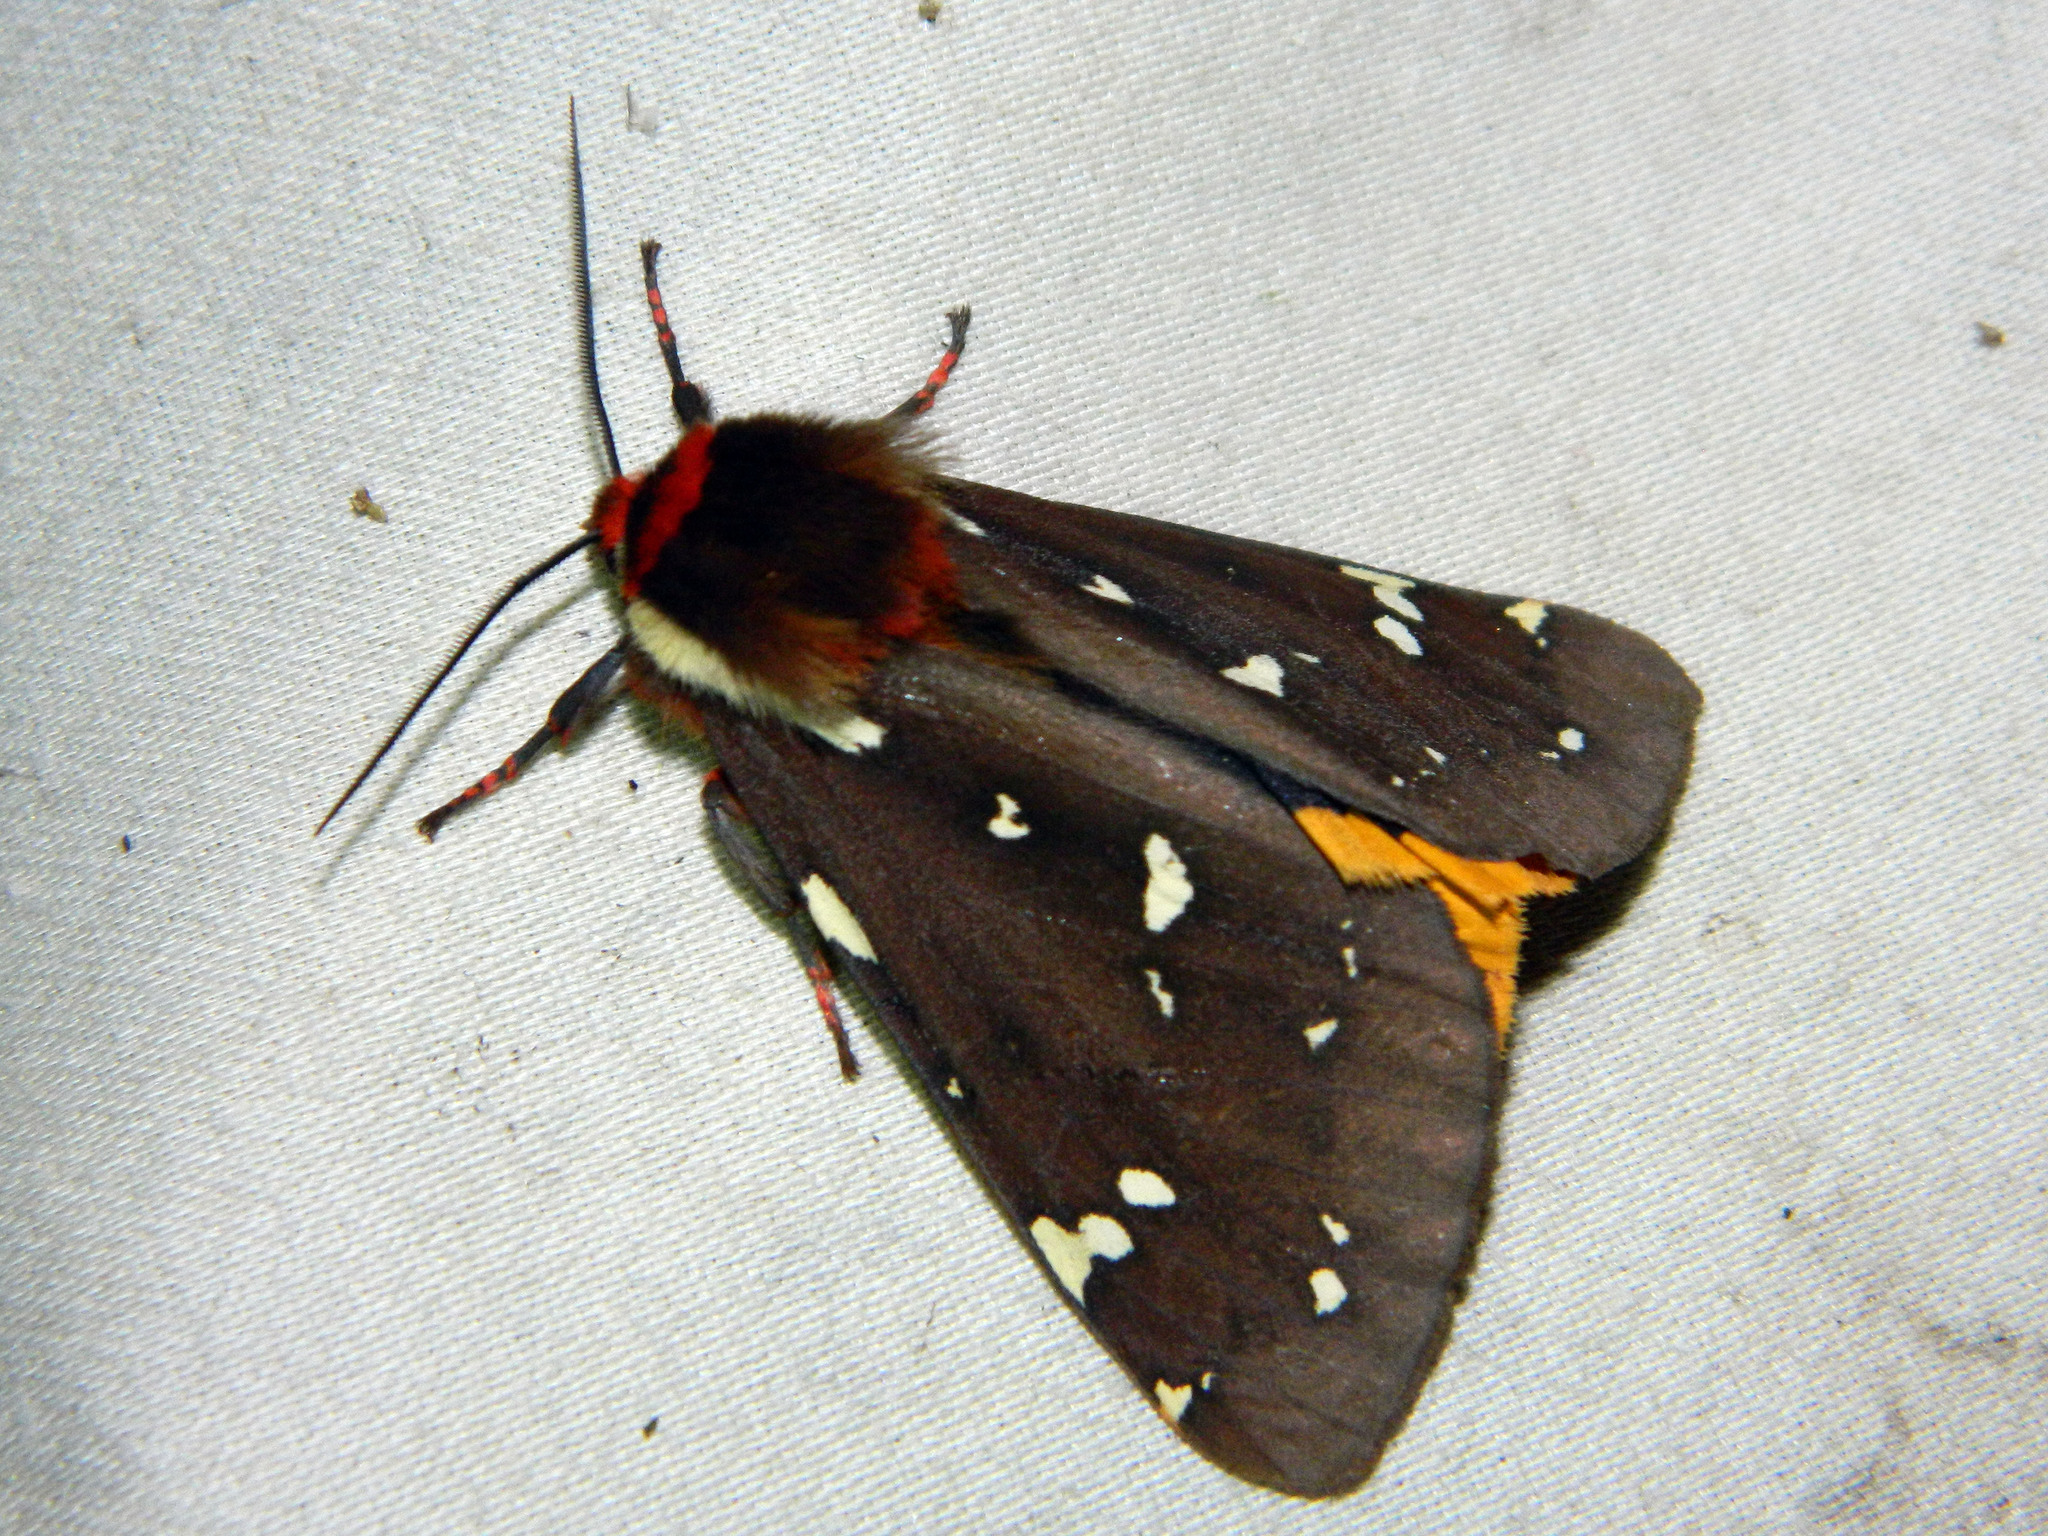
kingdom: Animalia
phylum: Arthropoda
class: Insecta
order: Lepidoptera
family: Erebidae
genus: Arctia
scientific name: Arctia parthenos
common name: St. lawrence tiger moth
